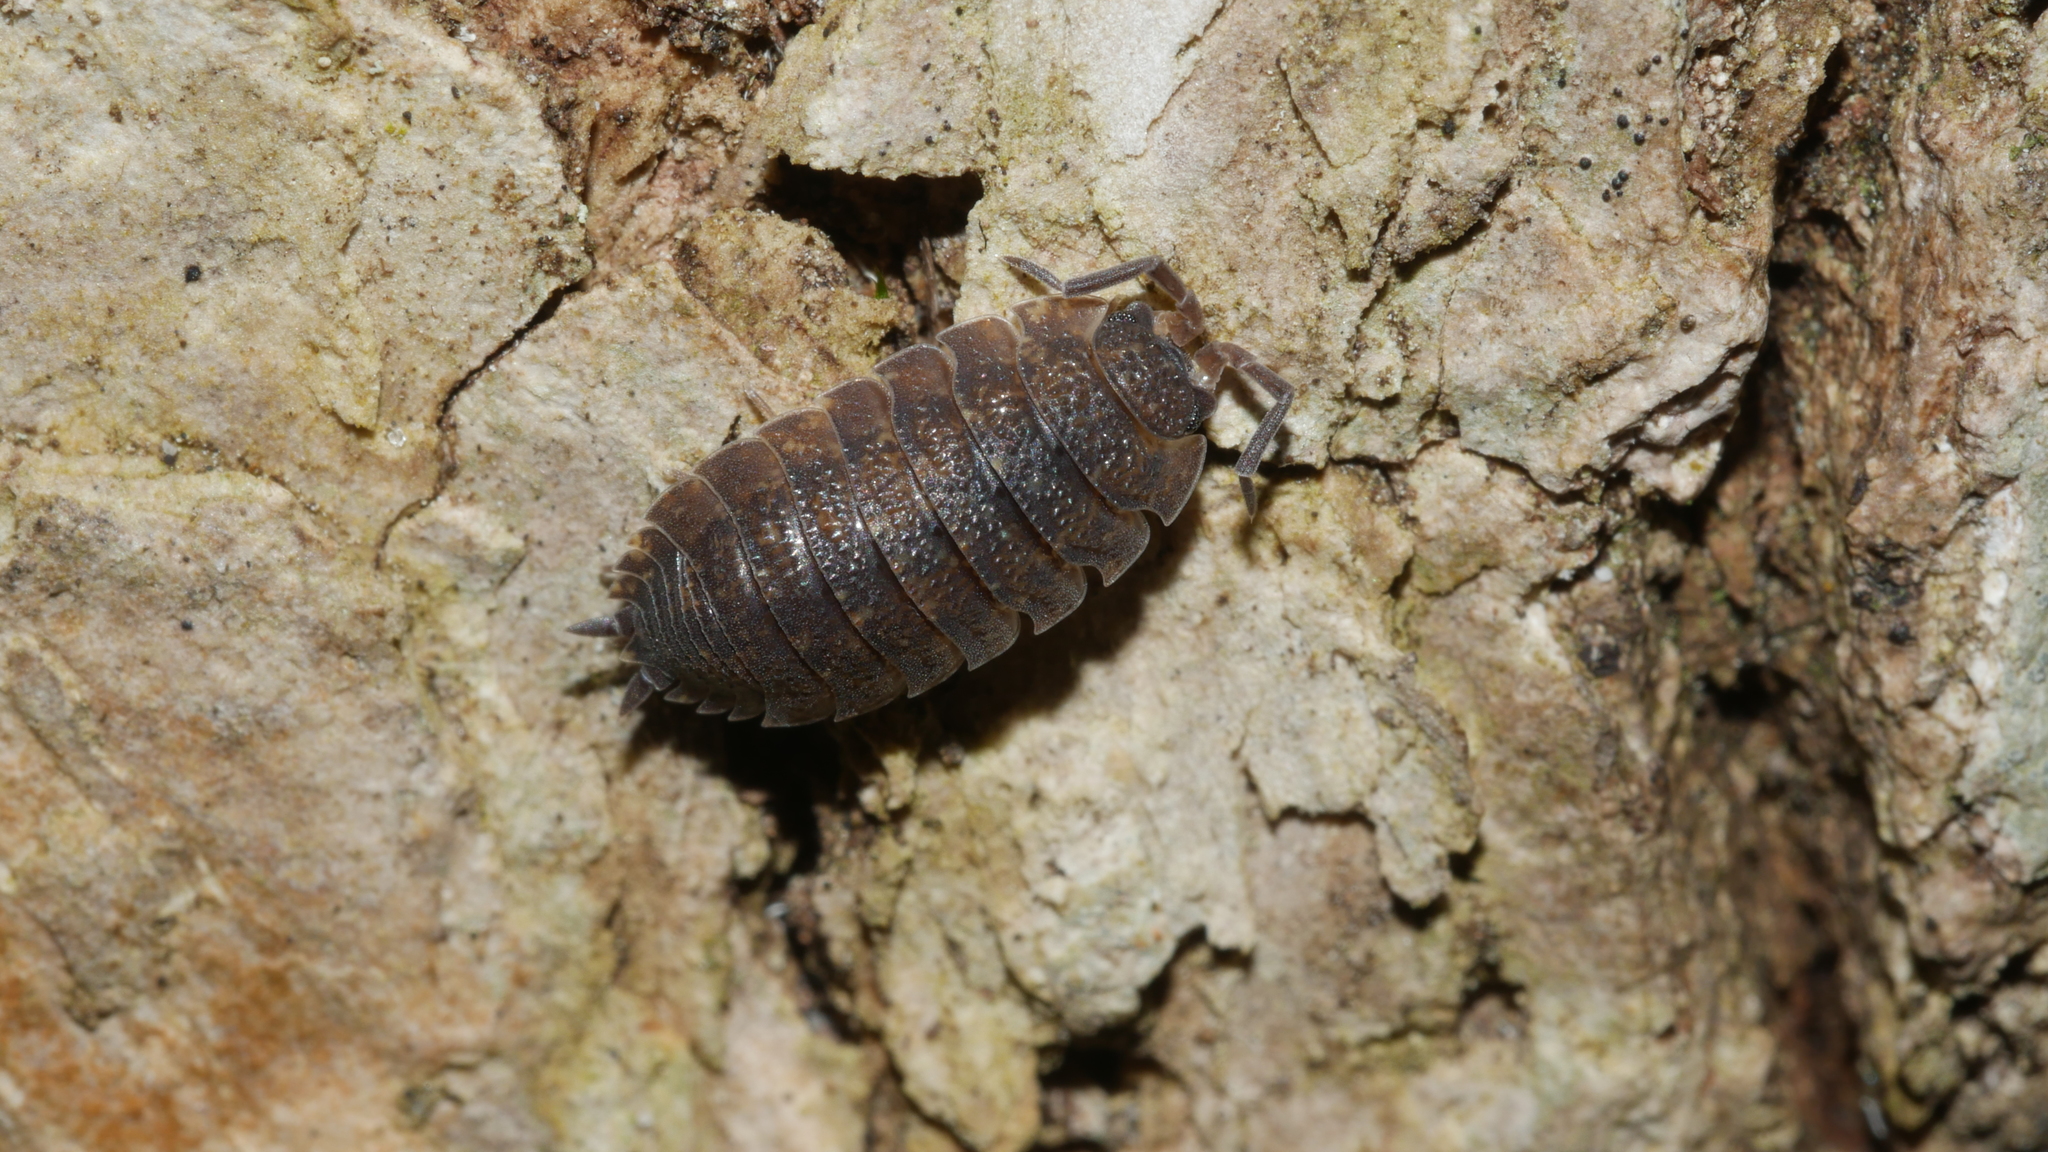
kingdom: Animalia
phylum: Arthropoda
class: Malacostraca
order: Isopoda
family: Porcellionidae
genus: Porcellio
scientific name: Porcellio scaber
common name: Common rough woodlouse
